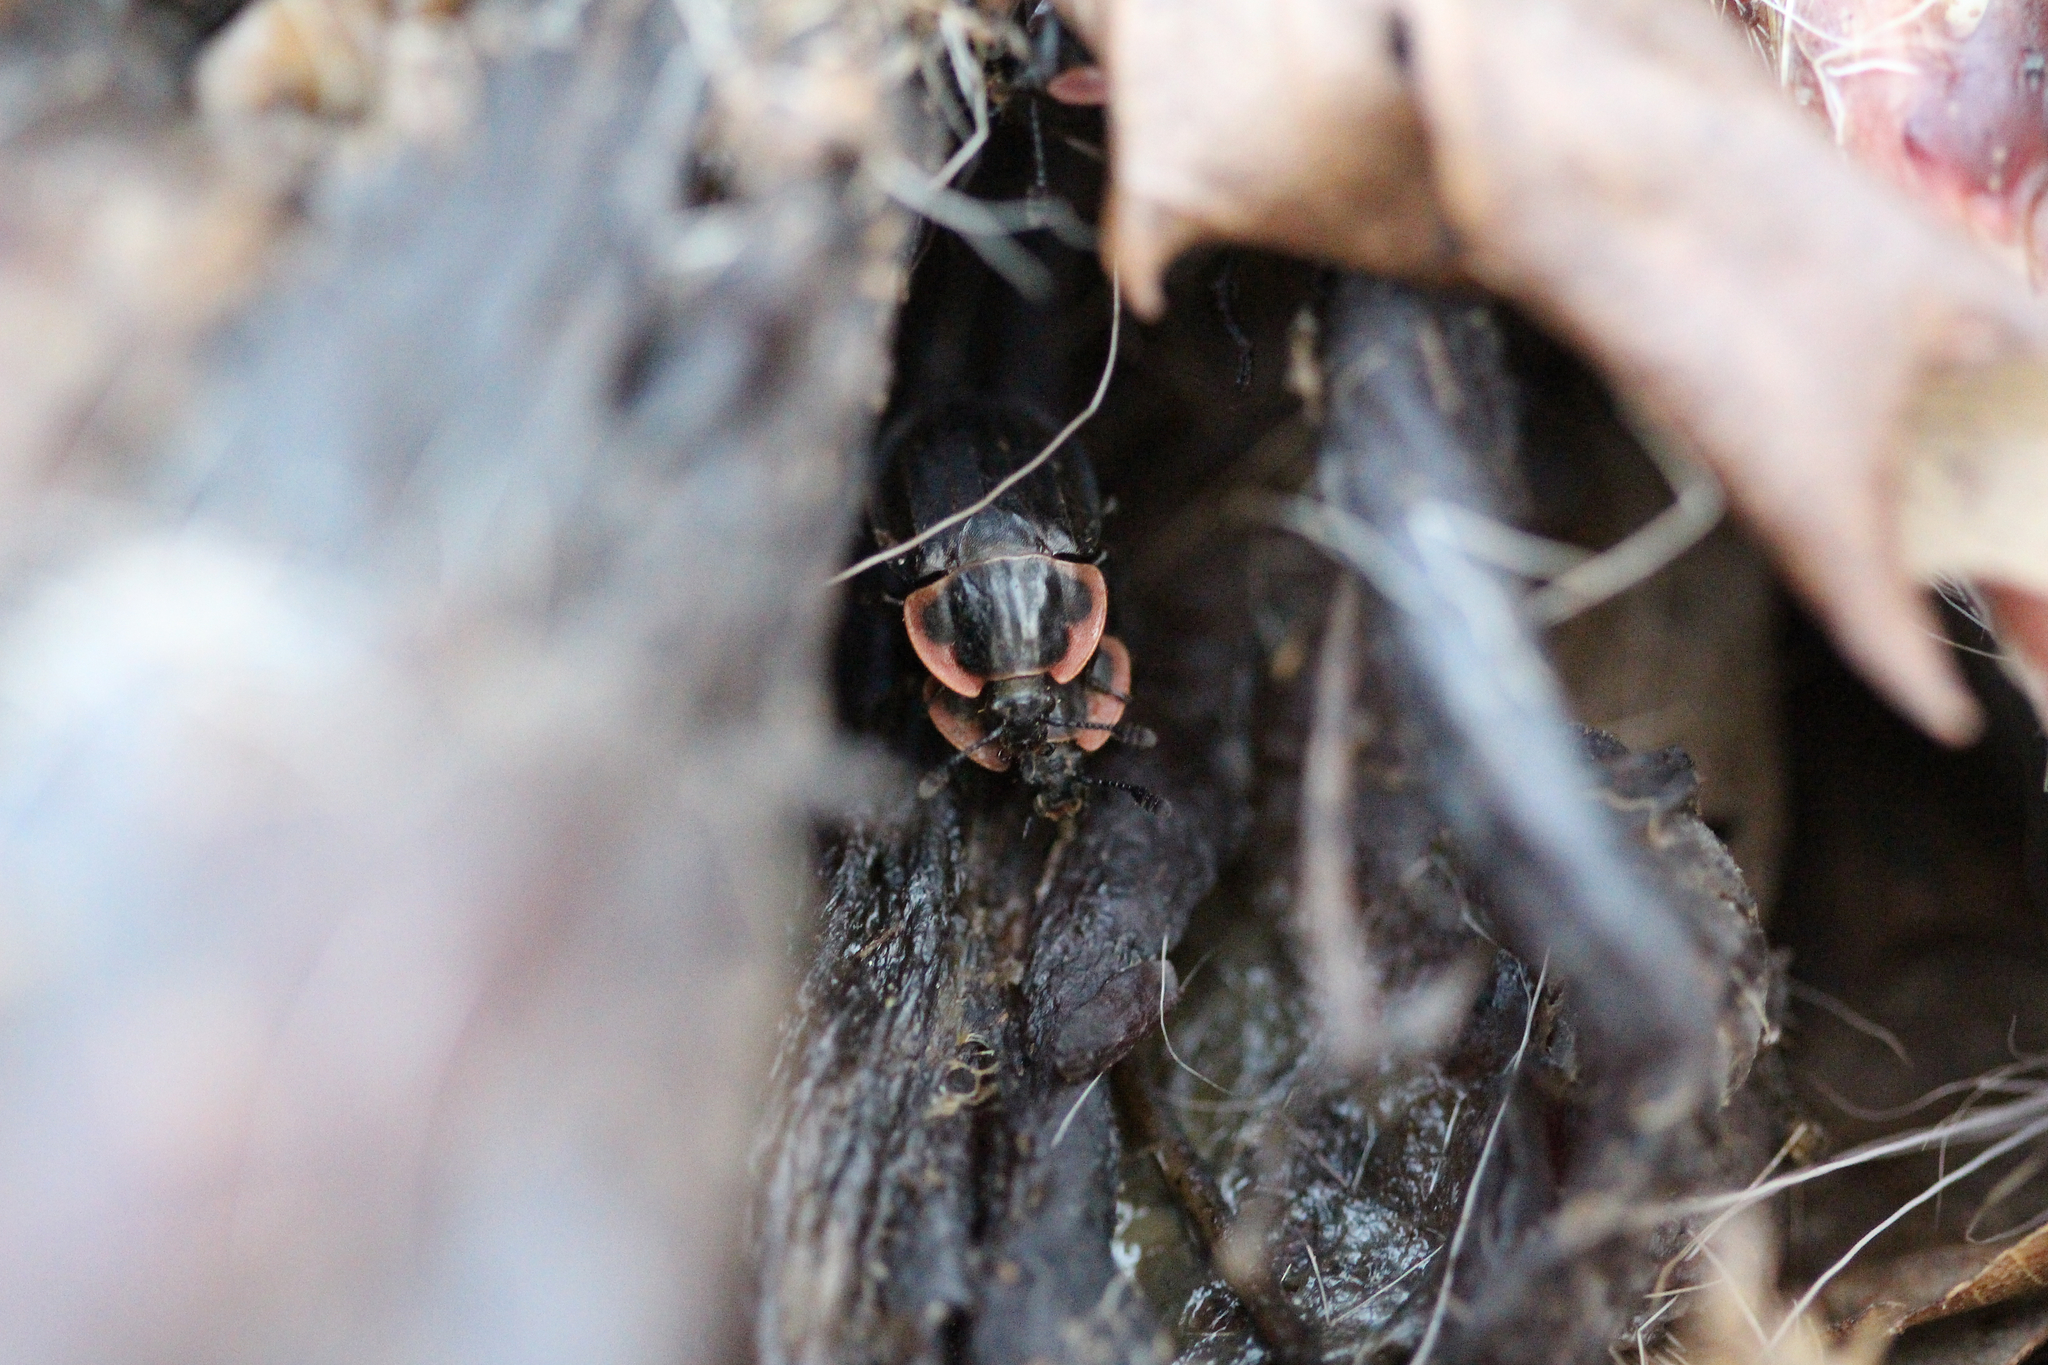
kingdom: Animalia
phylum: Arthropoda
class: Insecta
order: Coleoptera
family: Staphylinidae
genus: Oiceoptoma
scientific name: Oiceoptoma noveboracense
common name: Margined carrion beetle
